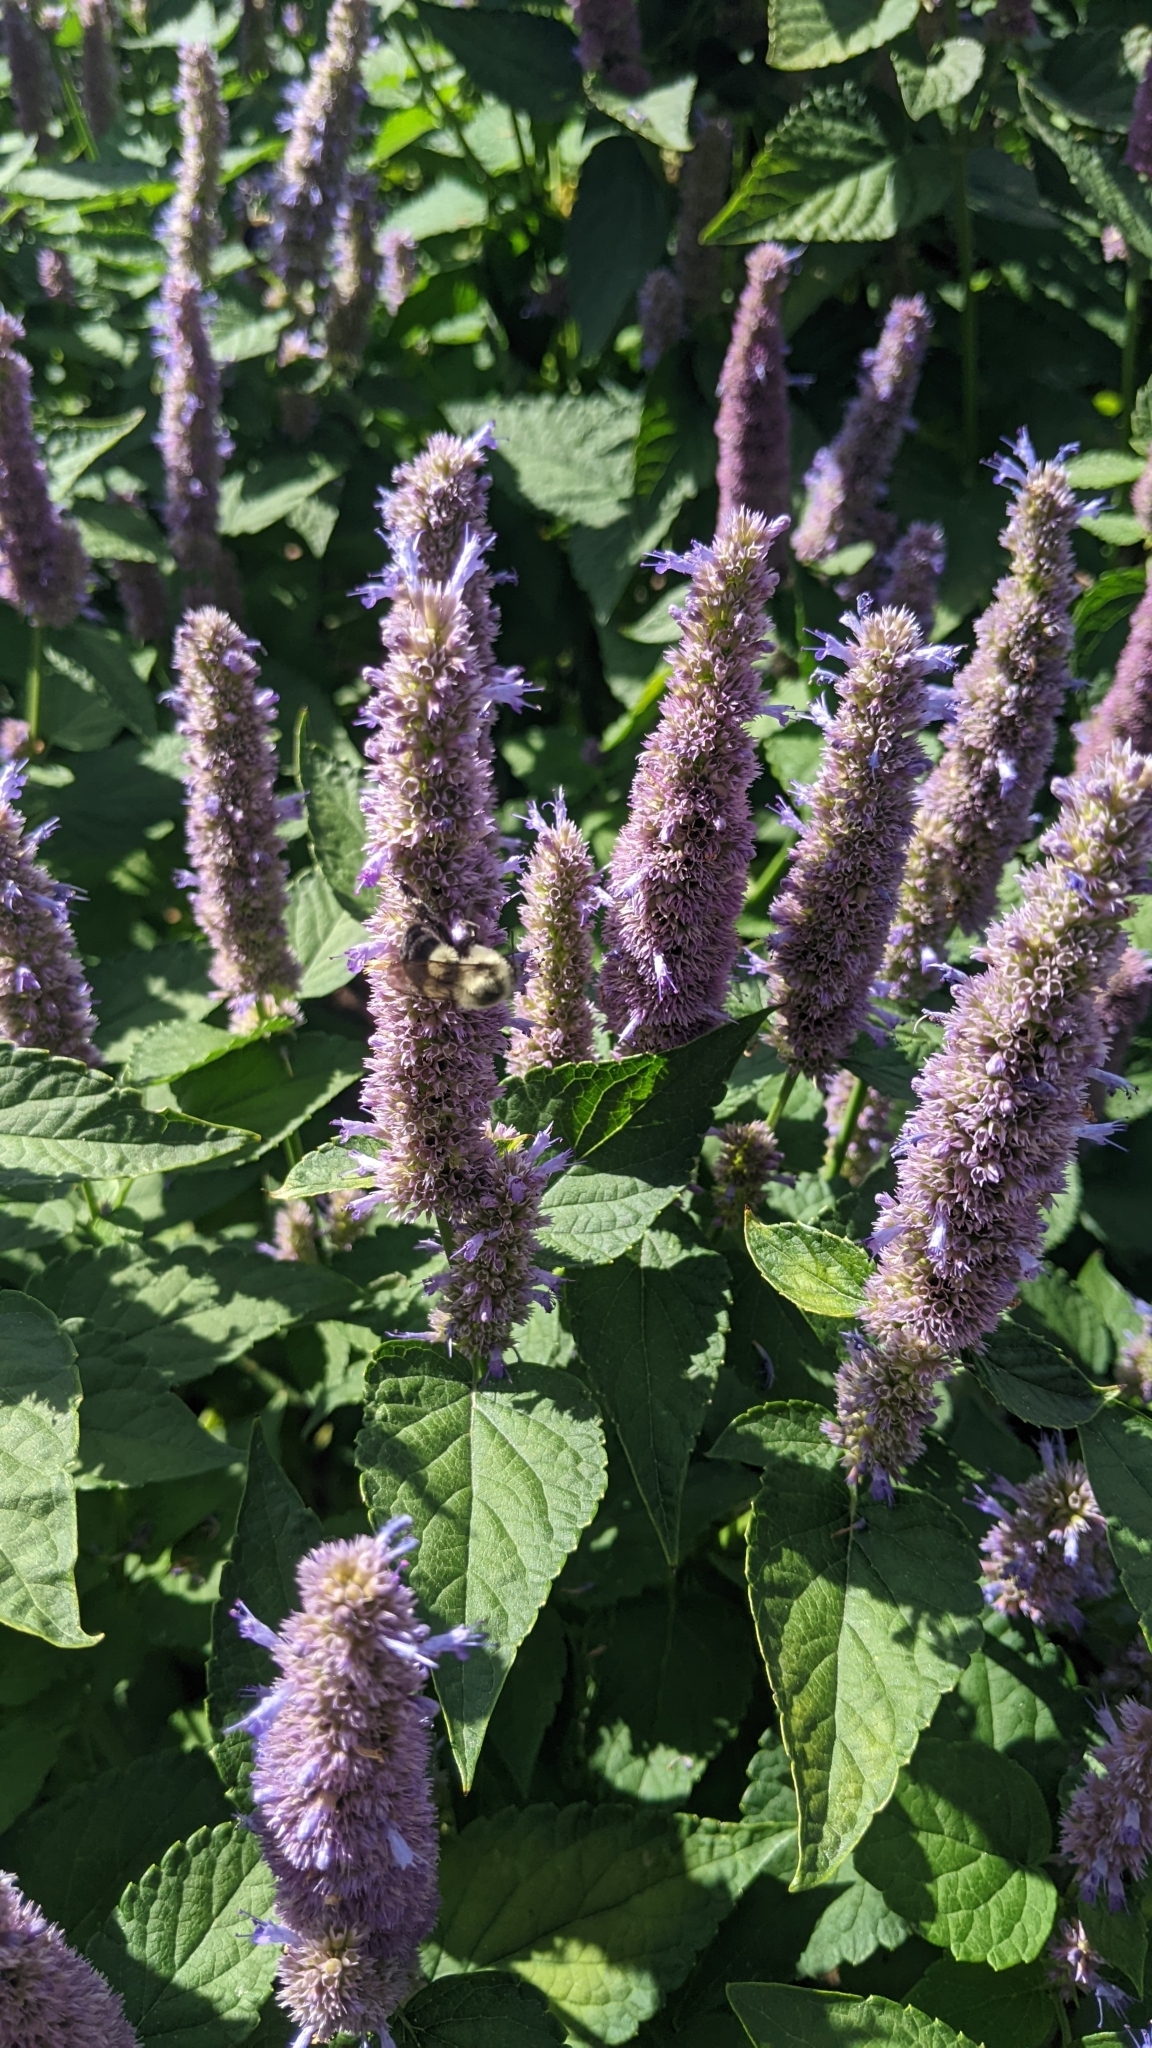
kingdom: Animalia
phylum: Arthropoda
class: Insecta
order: Hymenoptera
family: Apidae
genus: Bombus
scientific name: Bombus impatiens
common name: Common eastern bumble bee
